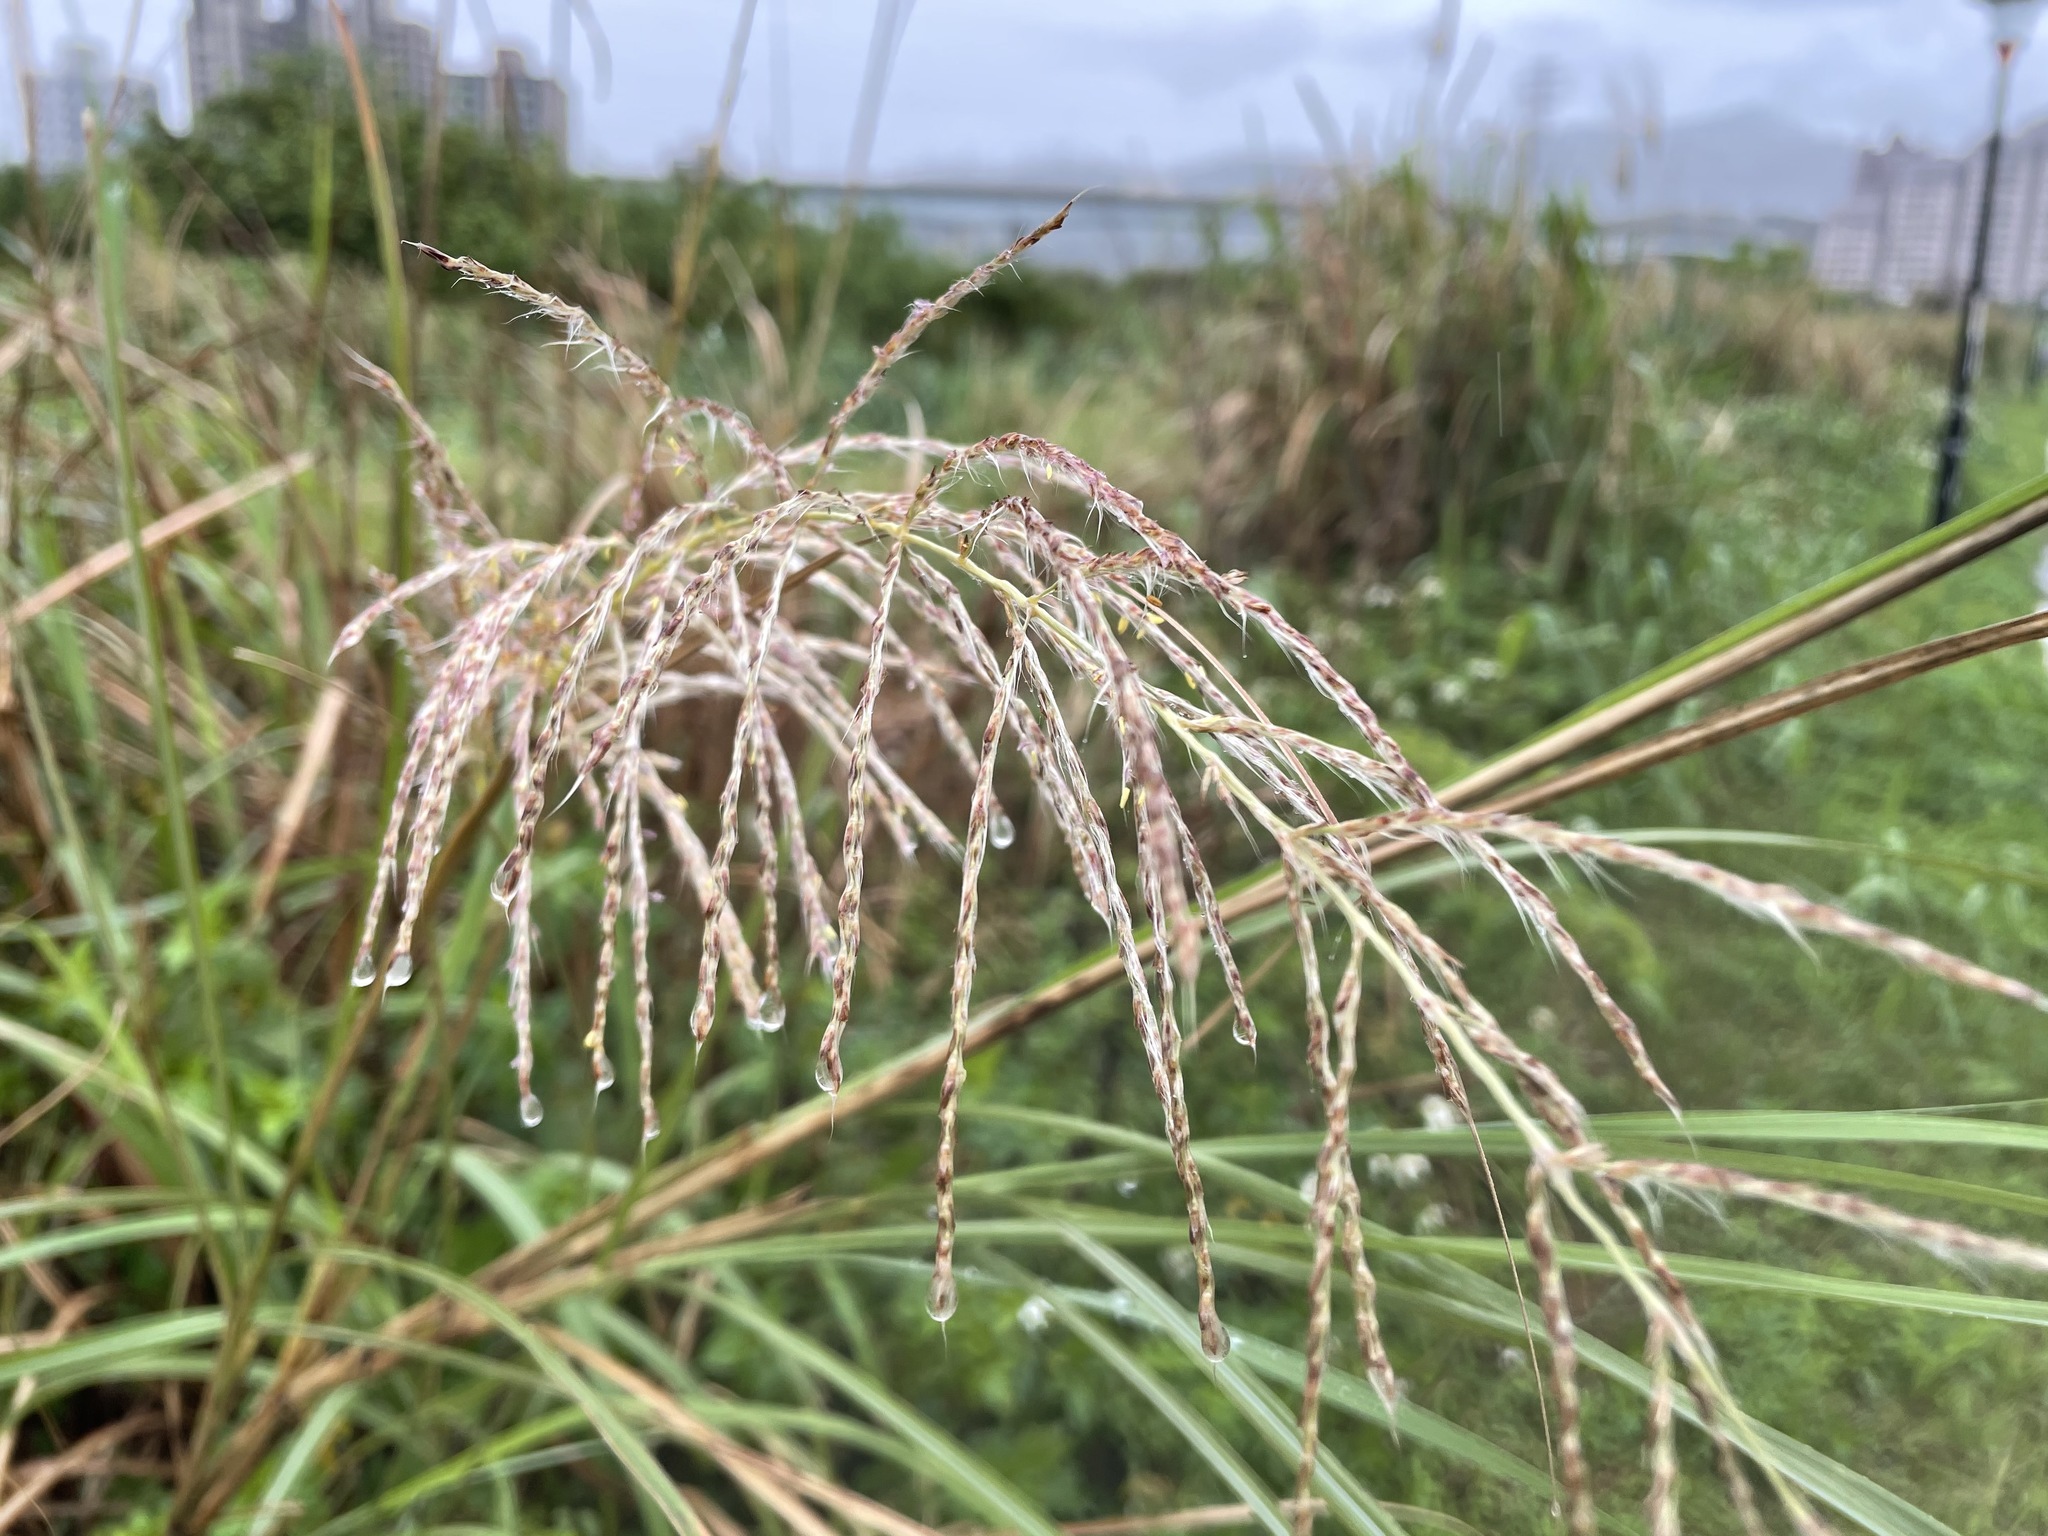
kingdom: Plantae
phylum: Tracheophyta
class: Liliopsida
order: Poales
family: Poaceae
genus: Saccharum
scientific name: Saccharum spontaneum
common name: Wild sugarcane
